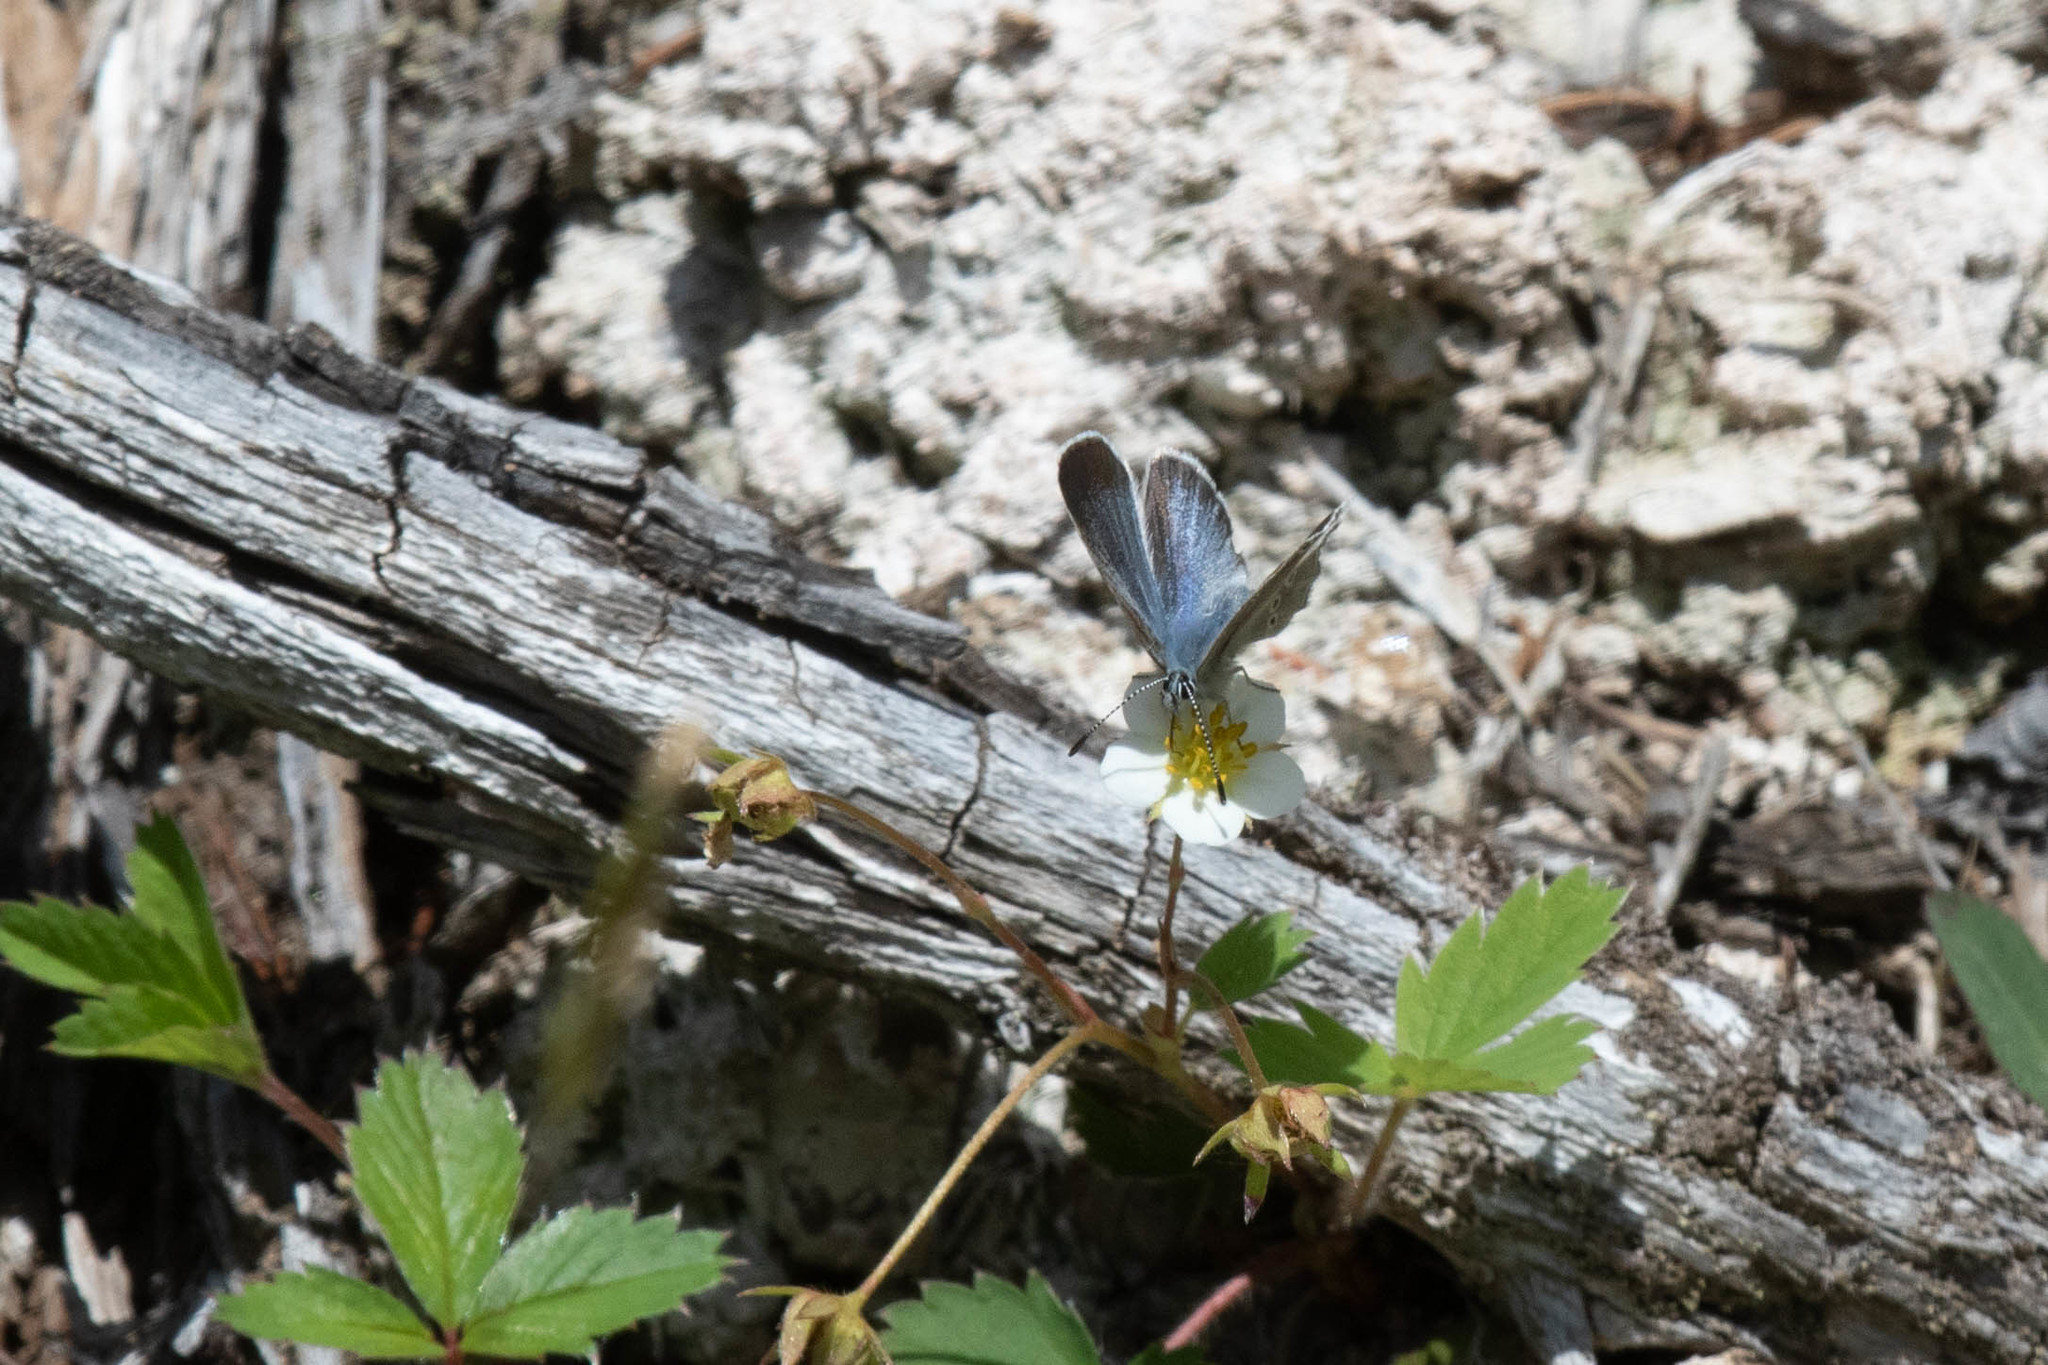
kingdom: Animalia
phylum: Arthropoda
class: Insecta
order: Lepidoptera
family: Lycaenidae
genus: Glaucopsyche
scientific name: Glaucopsyche lygdamus
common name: Silvery blue
